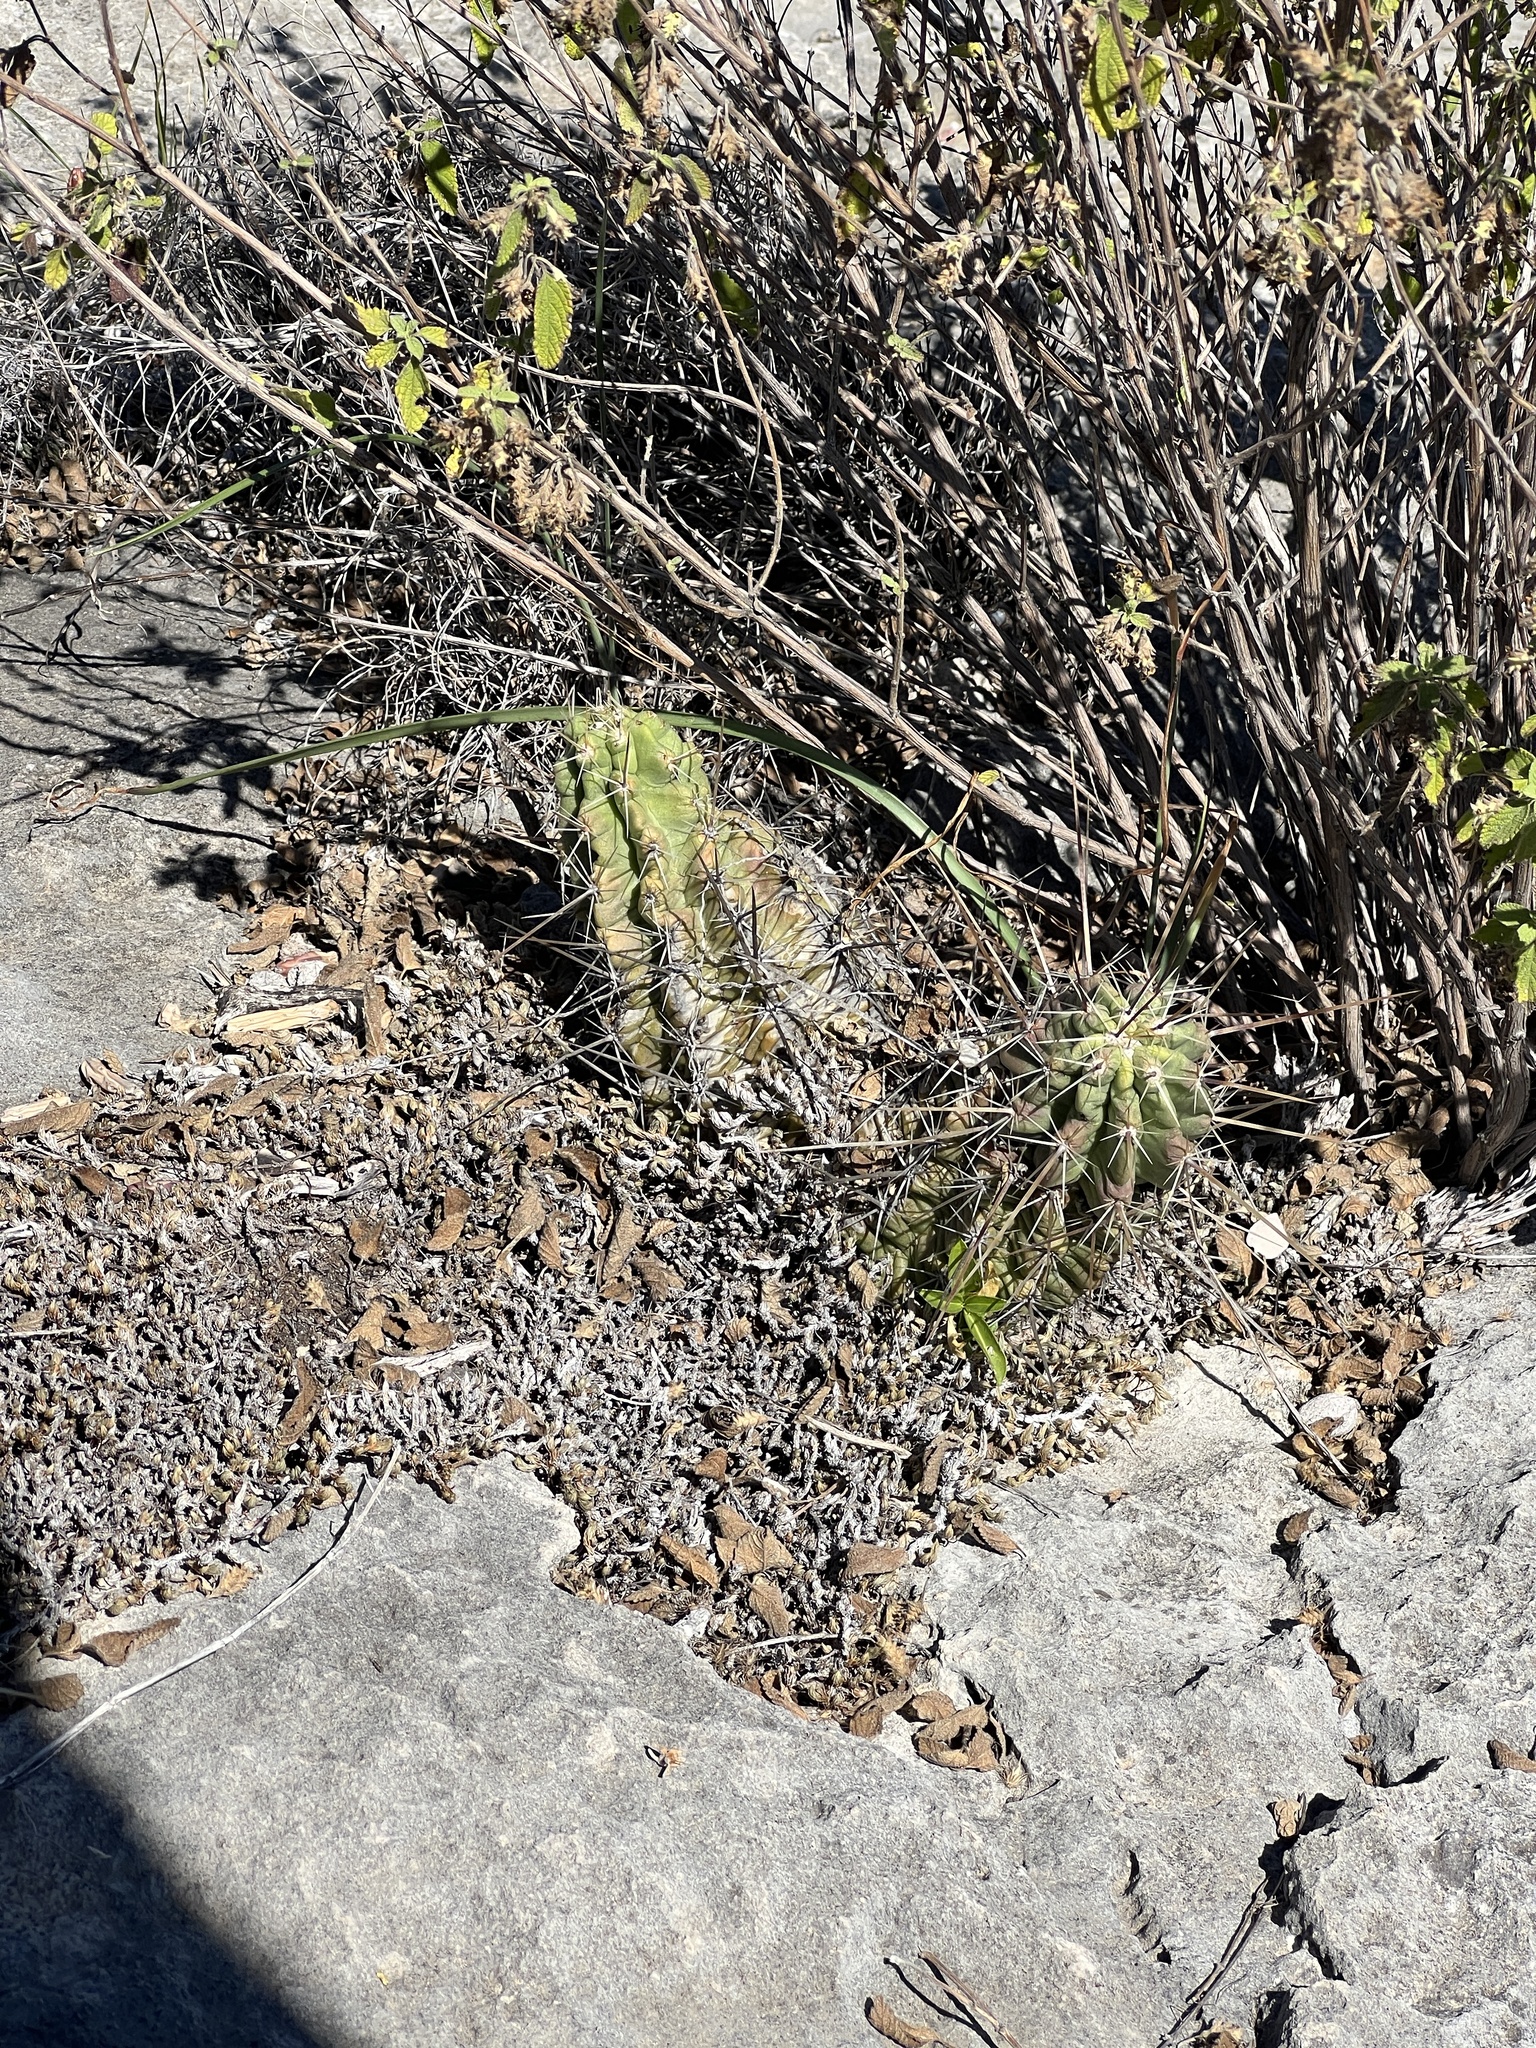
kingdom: Plantae
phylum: Tracheophyta
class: Magnoliopsida
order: Caryophyllales
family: Cactaceae
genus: Echinocereus
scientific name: Echinocereus enneacanthus
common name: Pitaya
